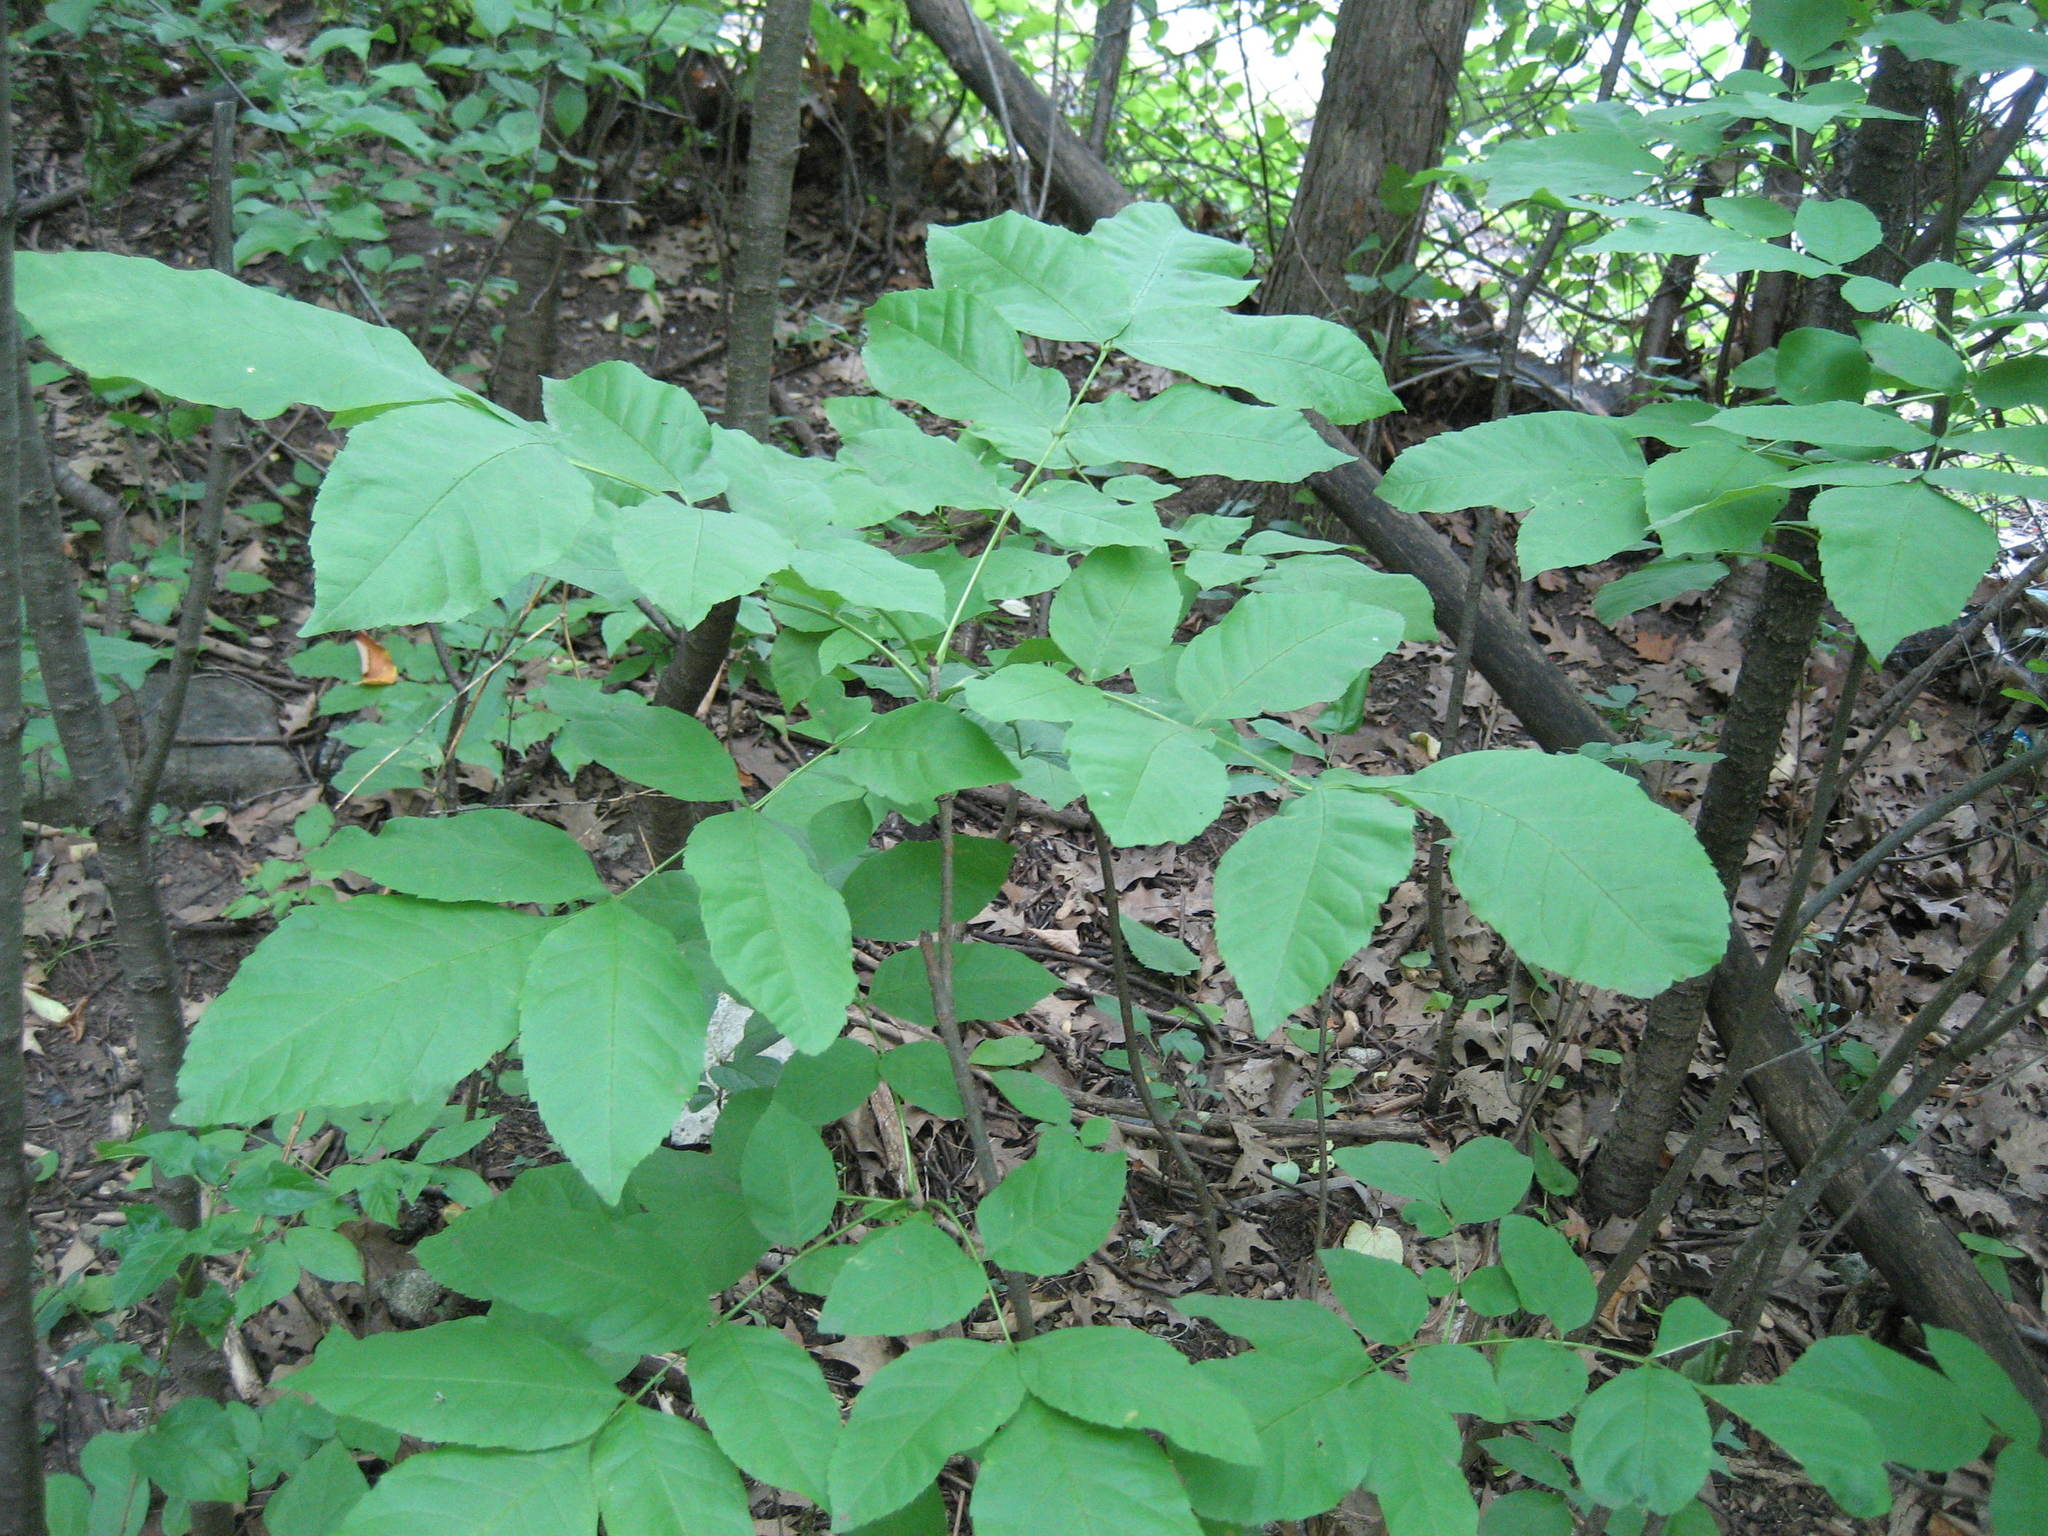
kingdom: Plantae
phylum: Tracheophyta
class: Magnoliopsida
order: Lamiales
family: Oleaceae
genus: Fraxinus
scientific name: Fraxinus pennsylvanica
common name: Green ash
